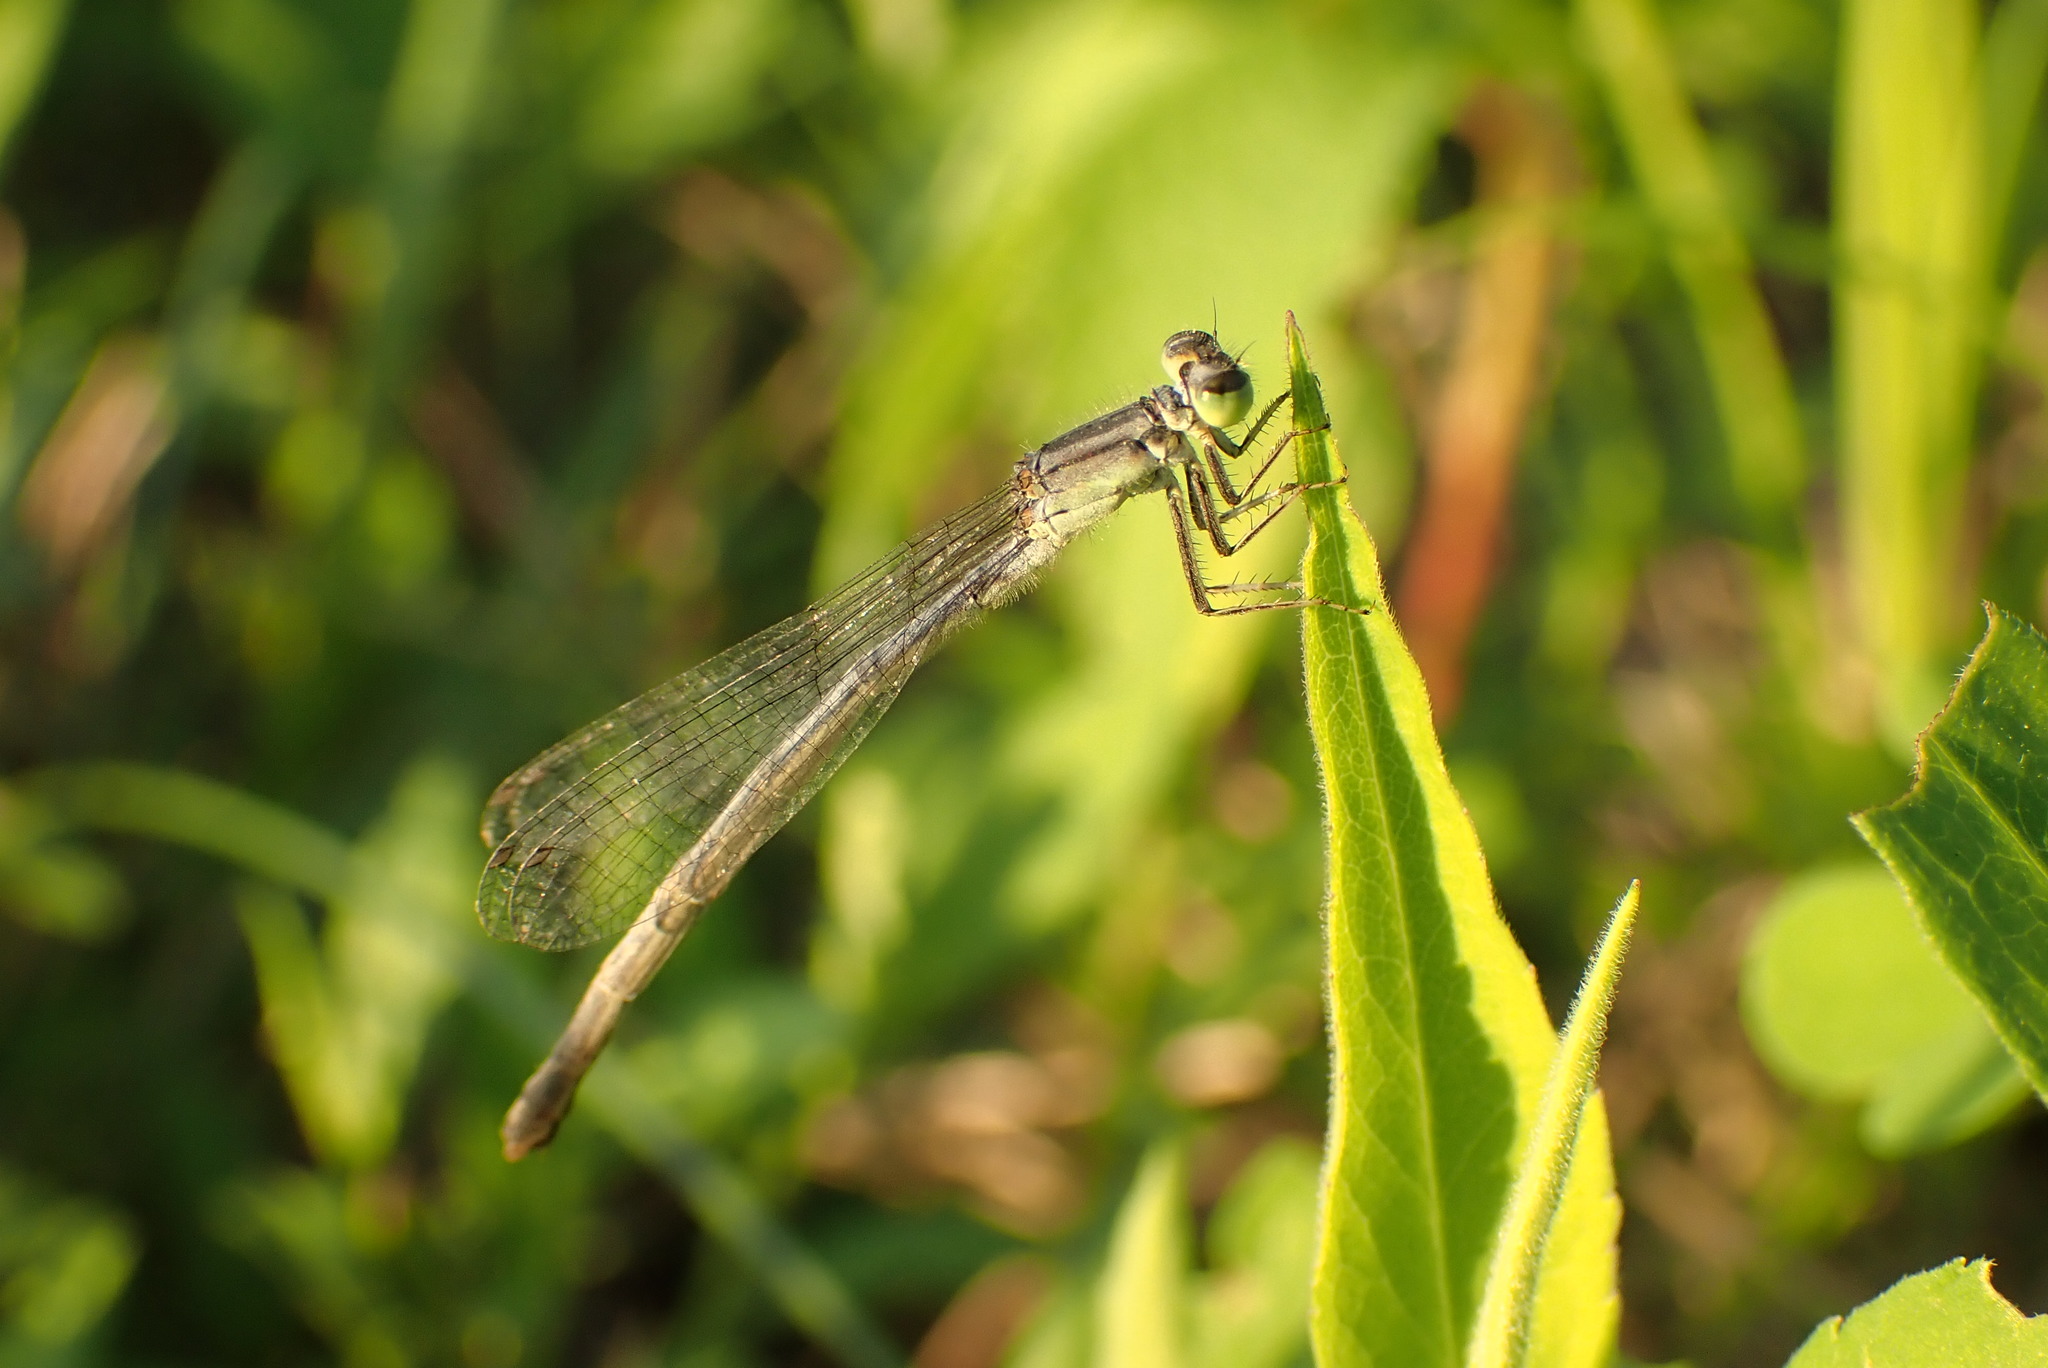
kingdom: Animalia
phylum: Arthropoda
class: Insecta
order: Odonata
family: Coenagrionidae
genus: Ischnura
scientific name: Ischnura verticalis
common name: Eastern forktail
